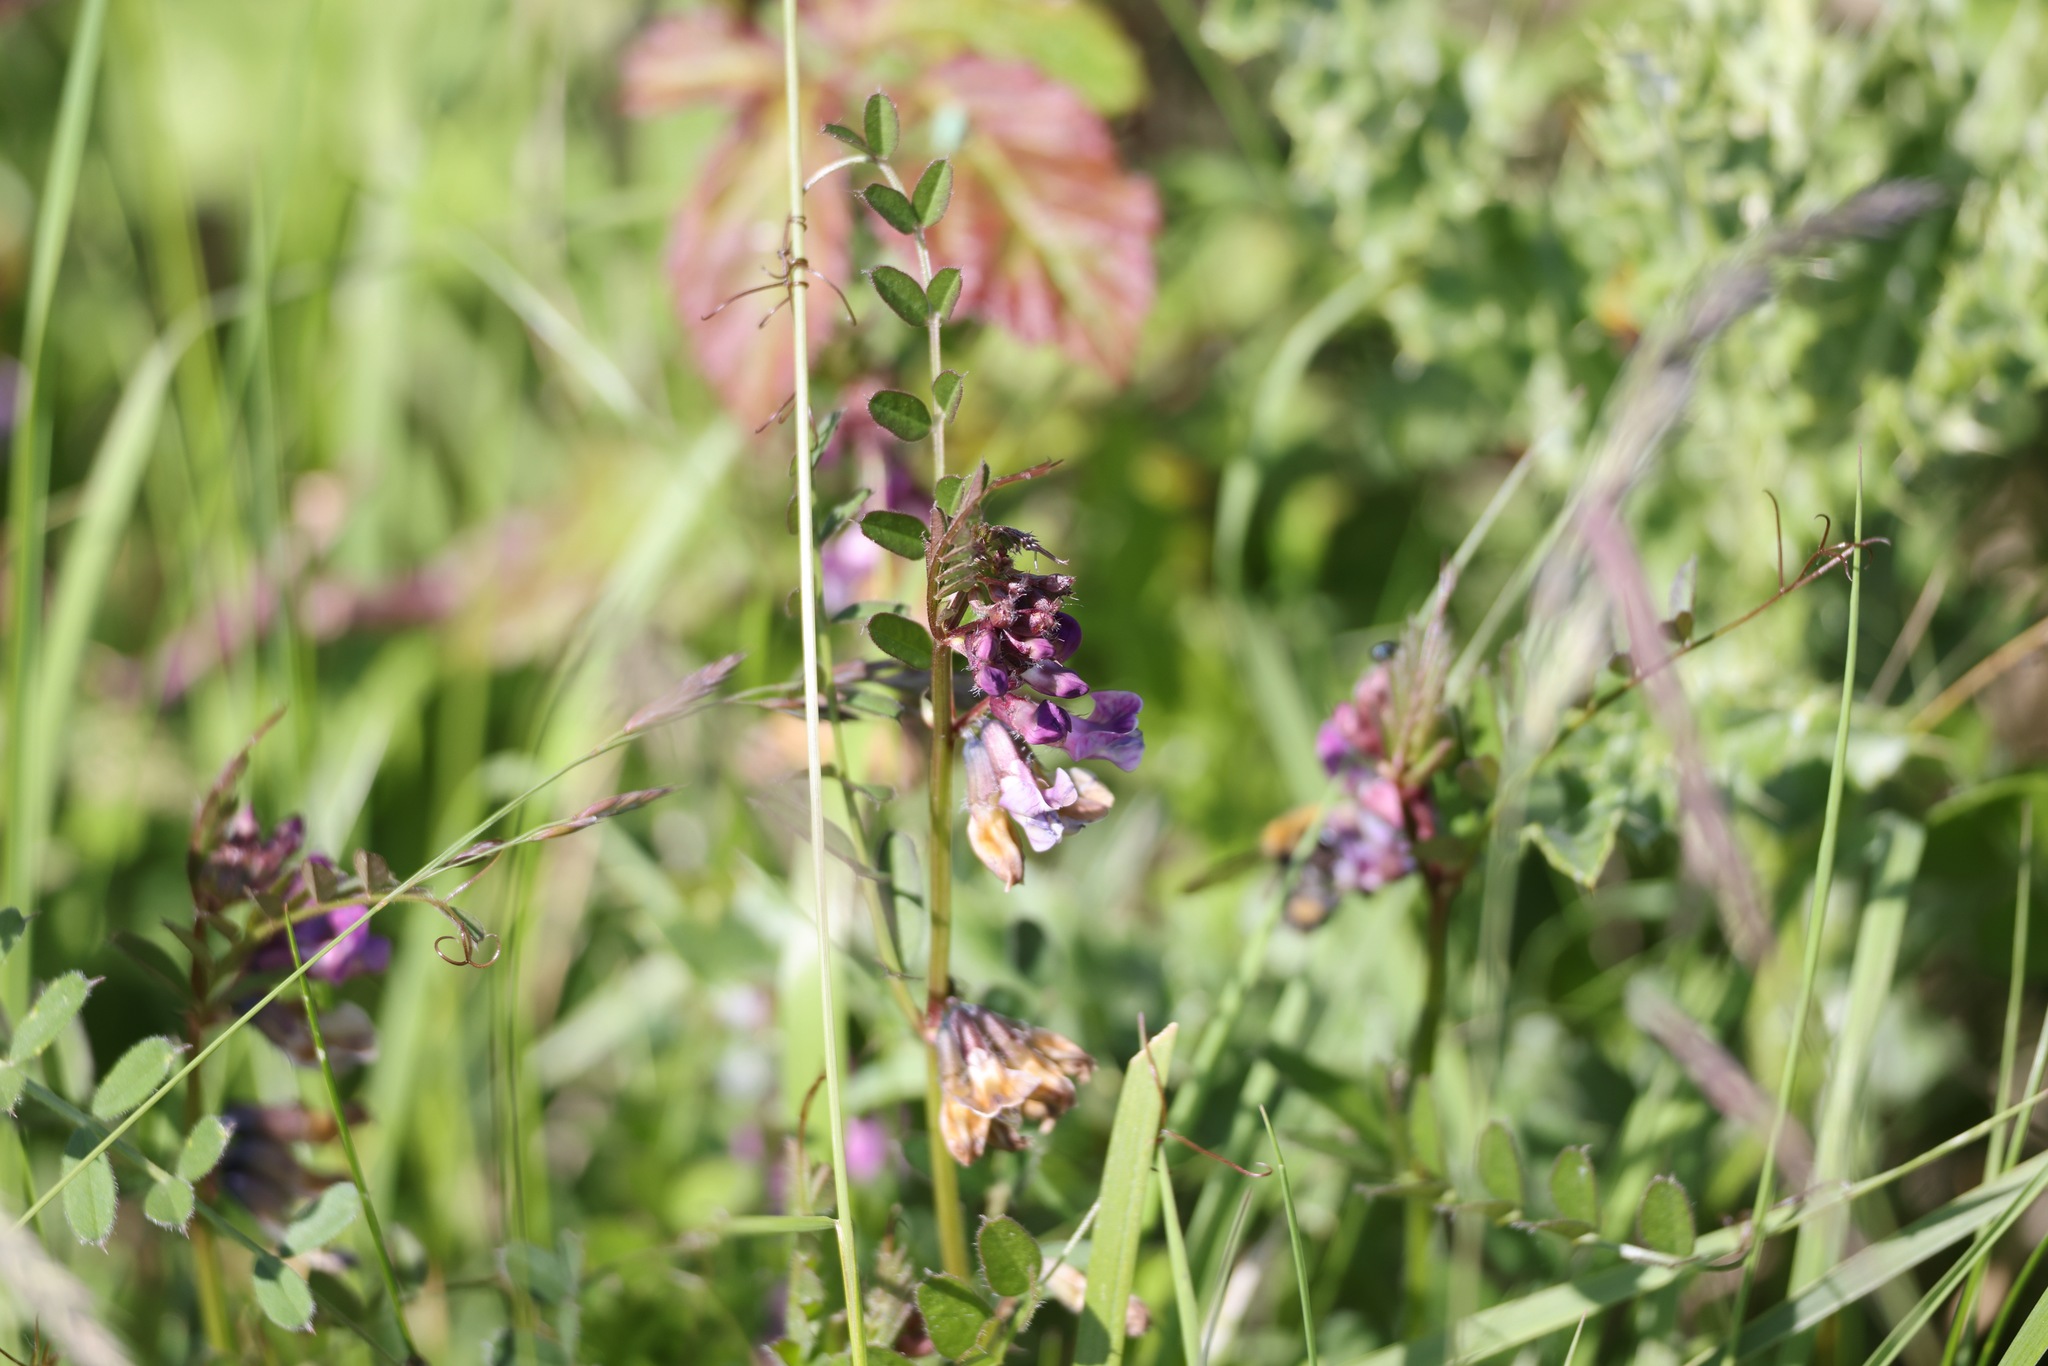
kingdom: Plantae
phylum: Tracheophyta
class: Magnoliopsida
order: Fabales
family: Fabaceae
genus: Vicia
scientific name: Vicia sepium
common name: Bush vetch
